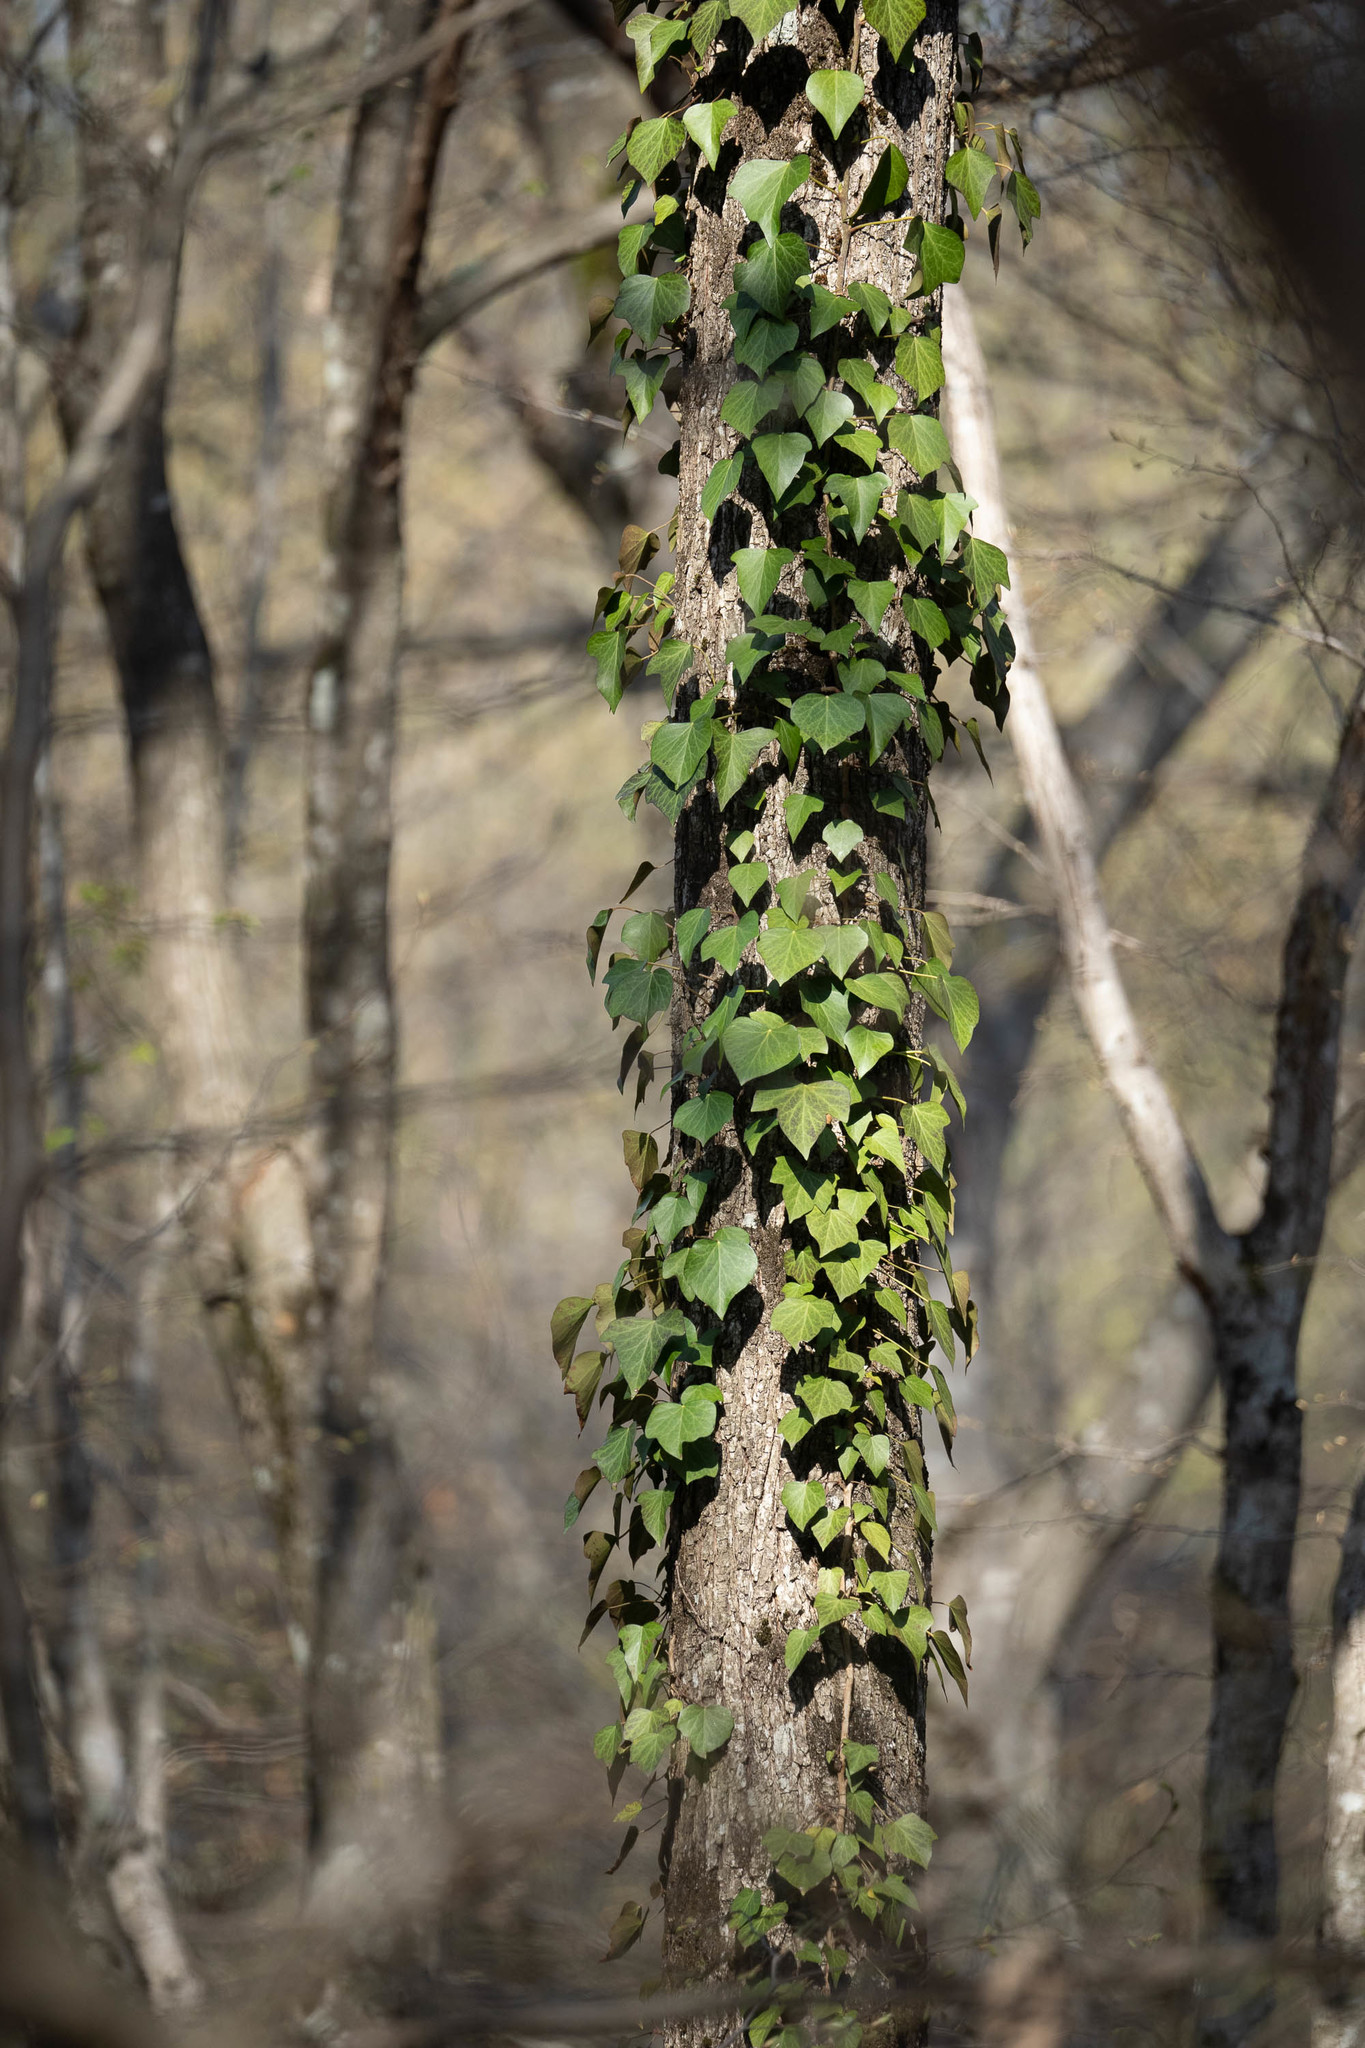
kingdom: Plantae
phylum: Tracheophyta
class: Magnoliopsida
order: Apiales
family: Araliaceae
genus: Hedera
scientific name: Hedera helix
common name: Ivy
